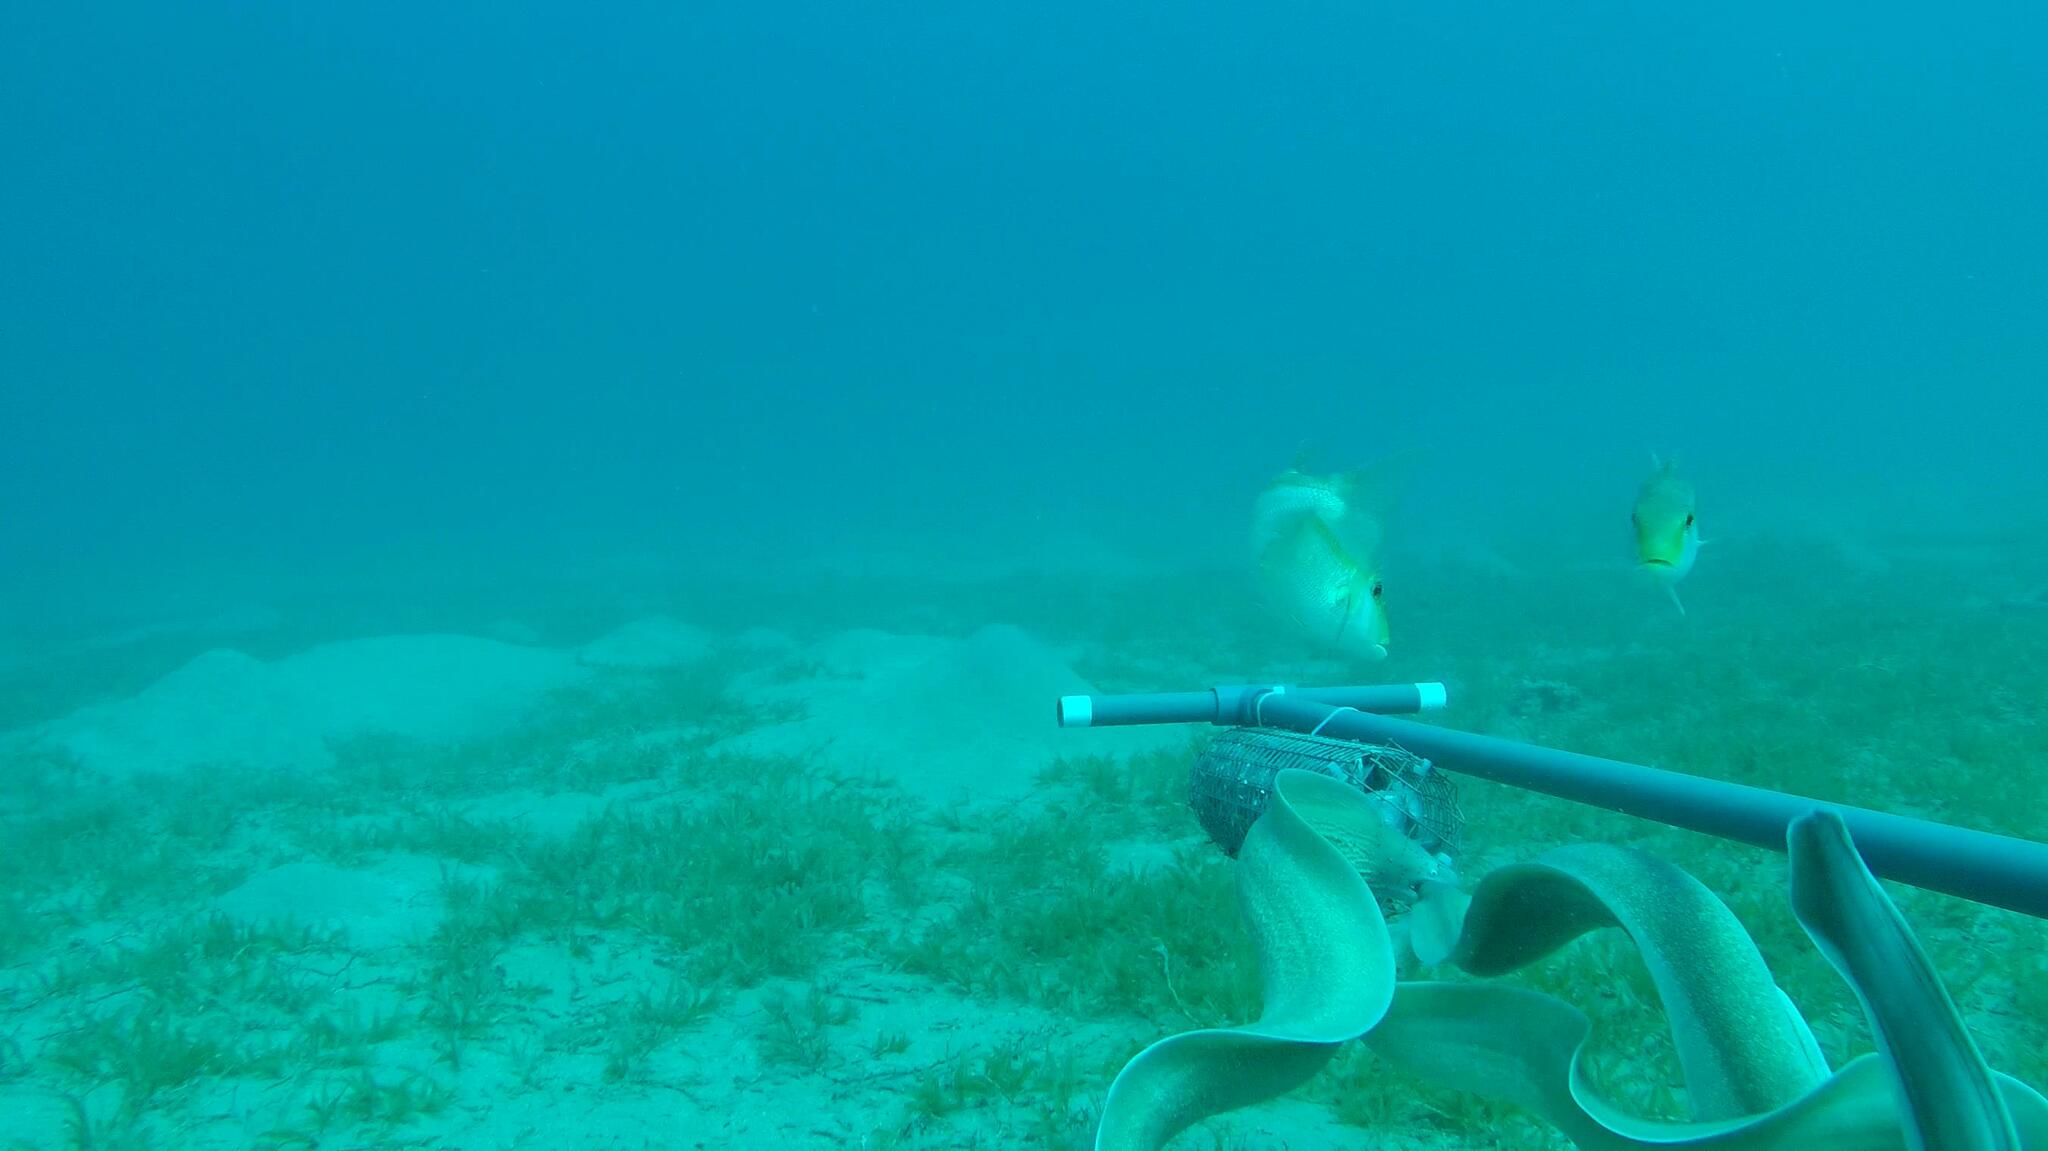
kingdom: Animalia
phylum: Chordata
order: Anguilliformes
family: Muraenidae
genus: Gymnothorax
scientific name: Gymnothorax griseus
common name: Geometric moray
